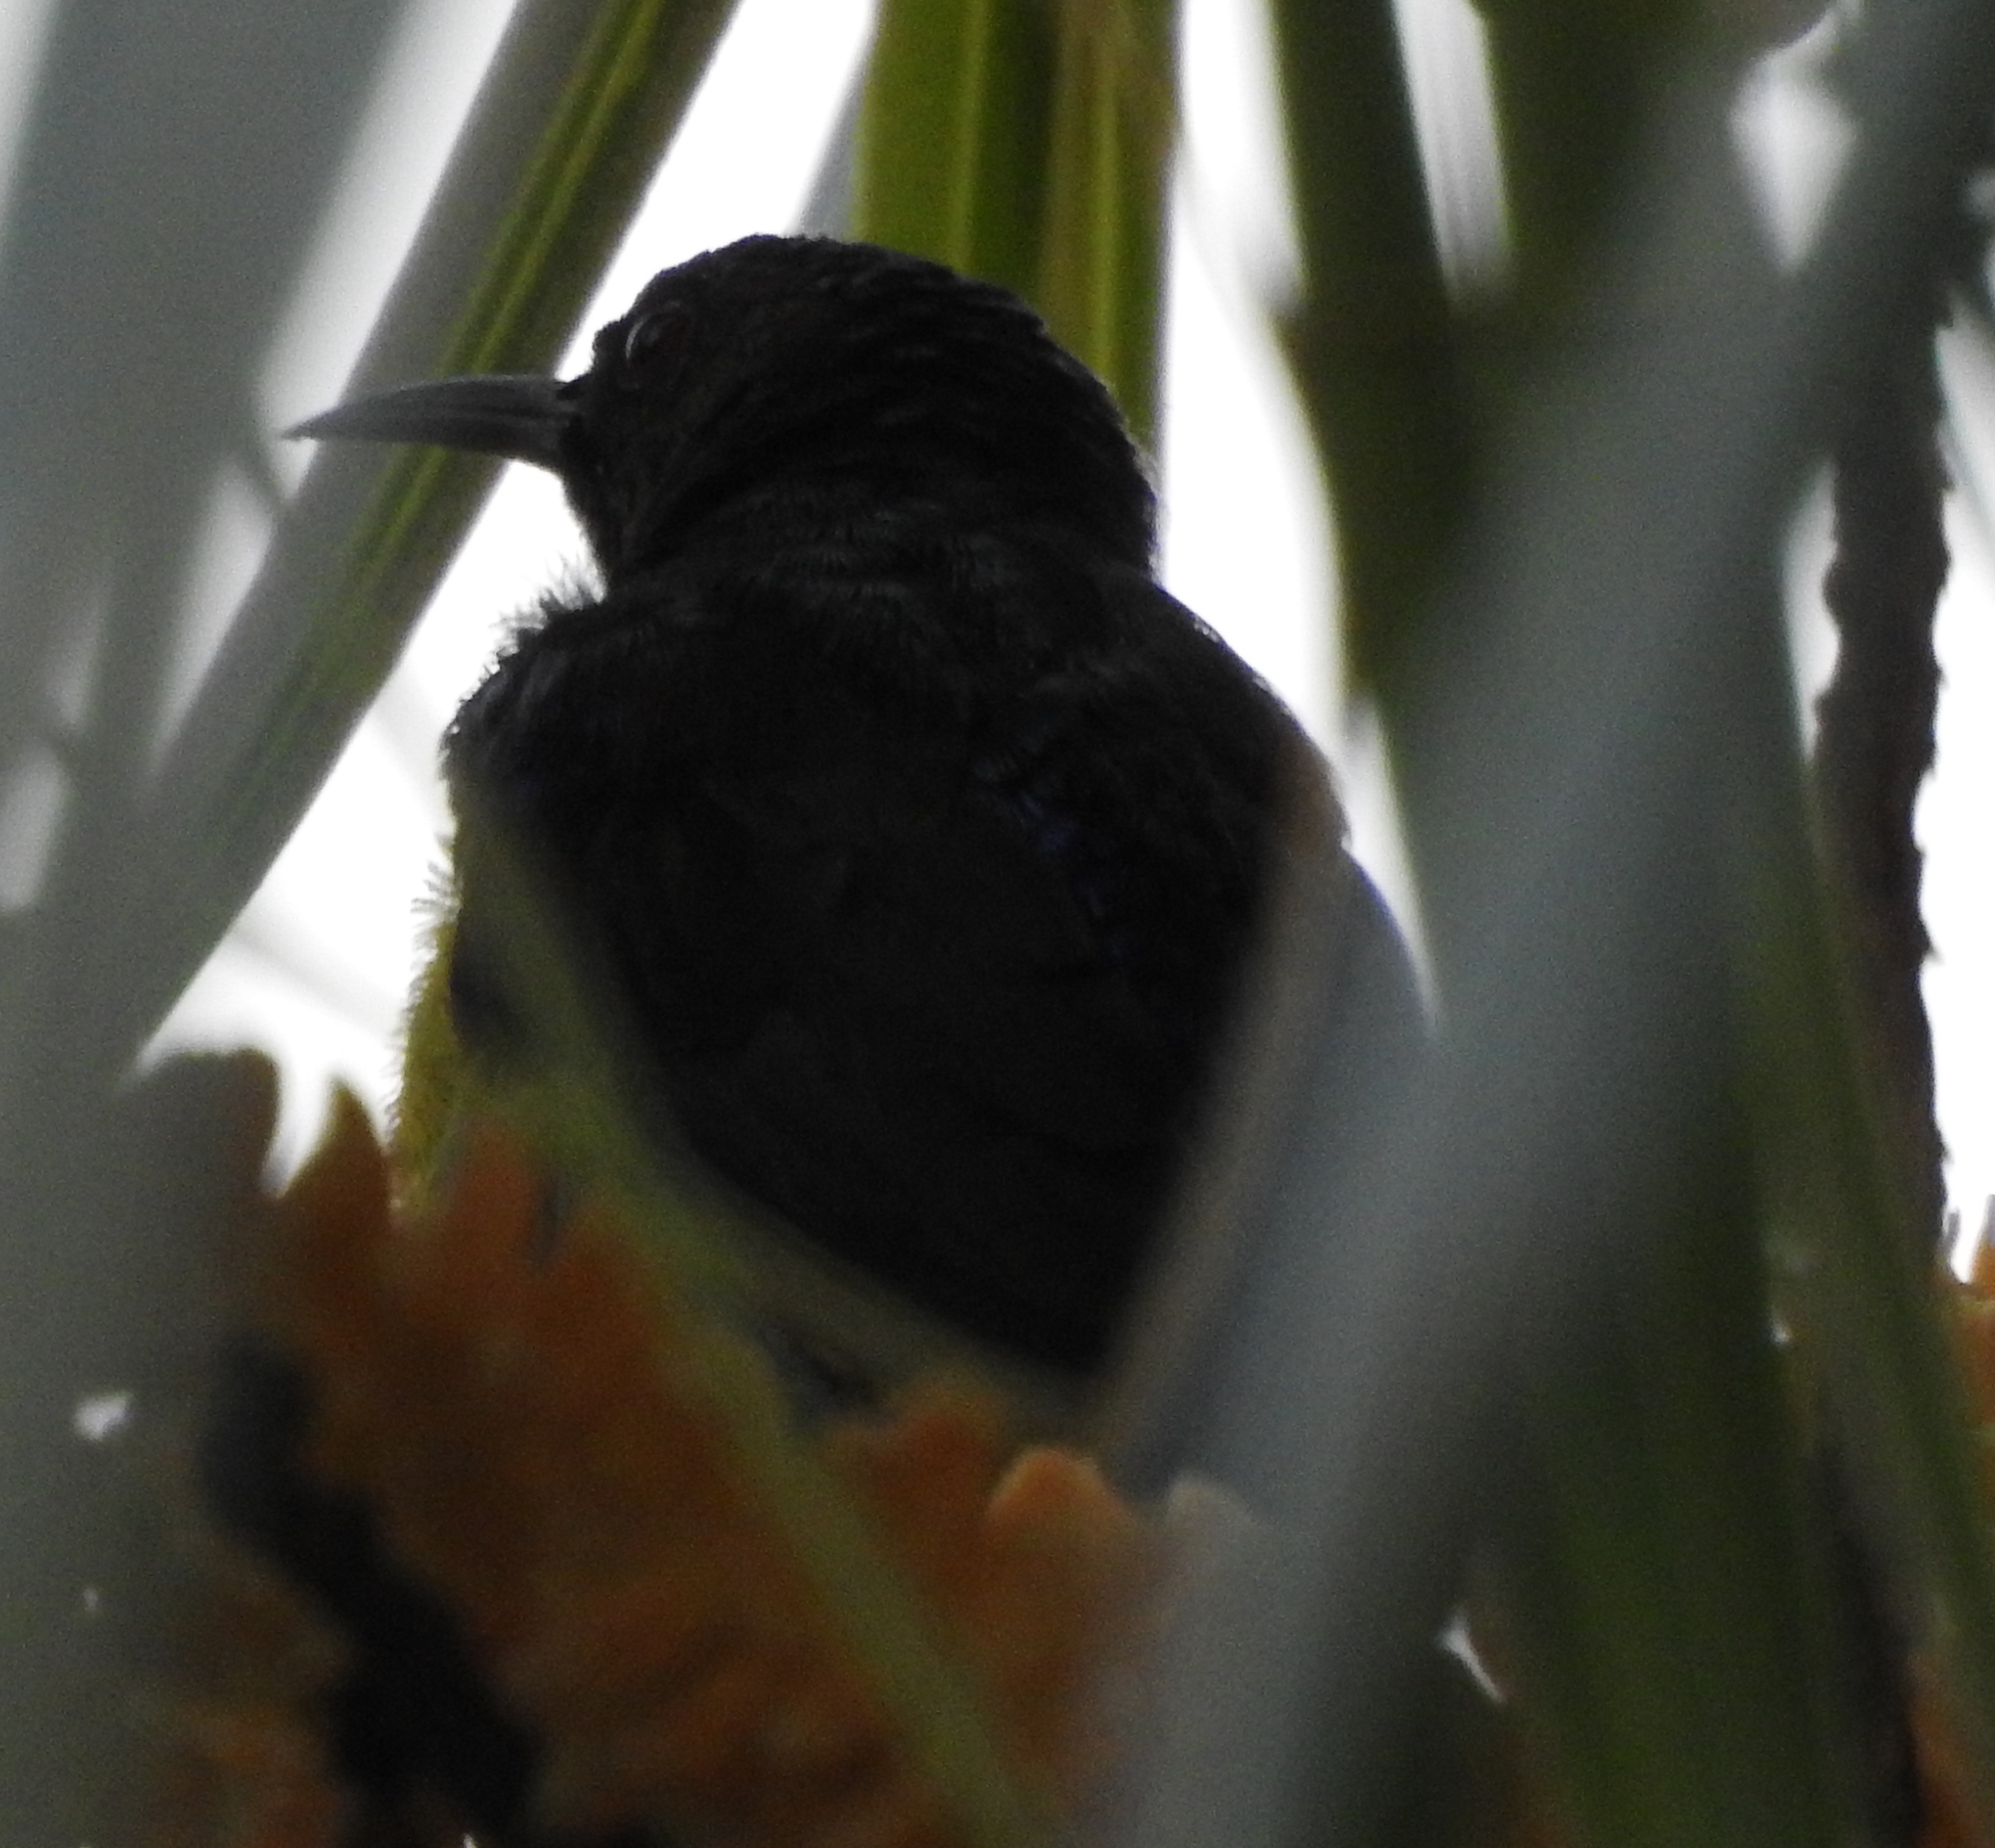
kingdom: Animalia
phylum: Chordata
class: Aves
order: Passeriformes
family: Nectariniidae
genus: Anthreptes
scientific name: Anthreptes malacensis
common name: Brown-throated sunbird
